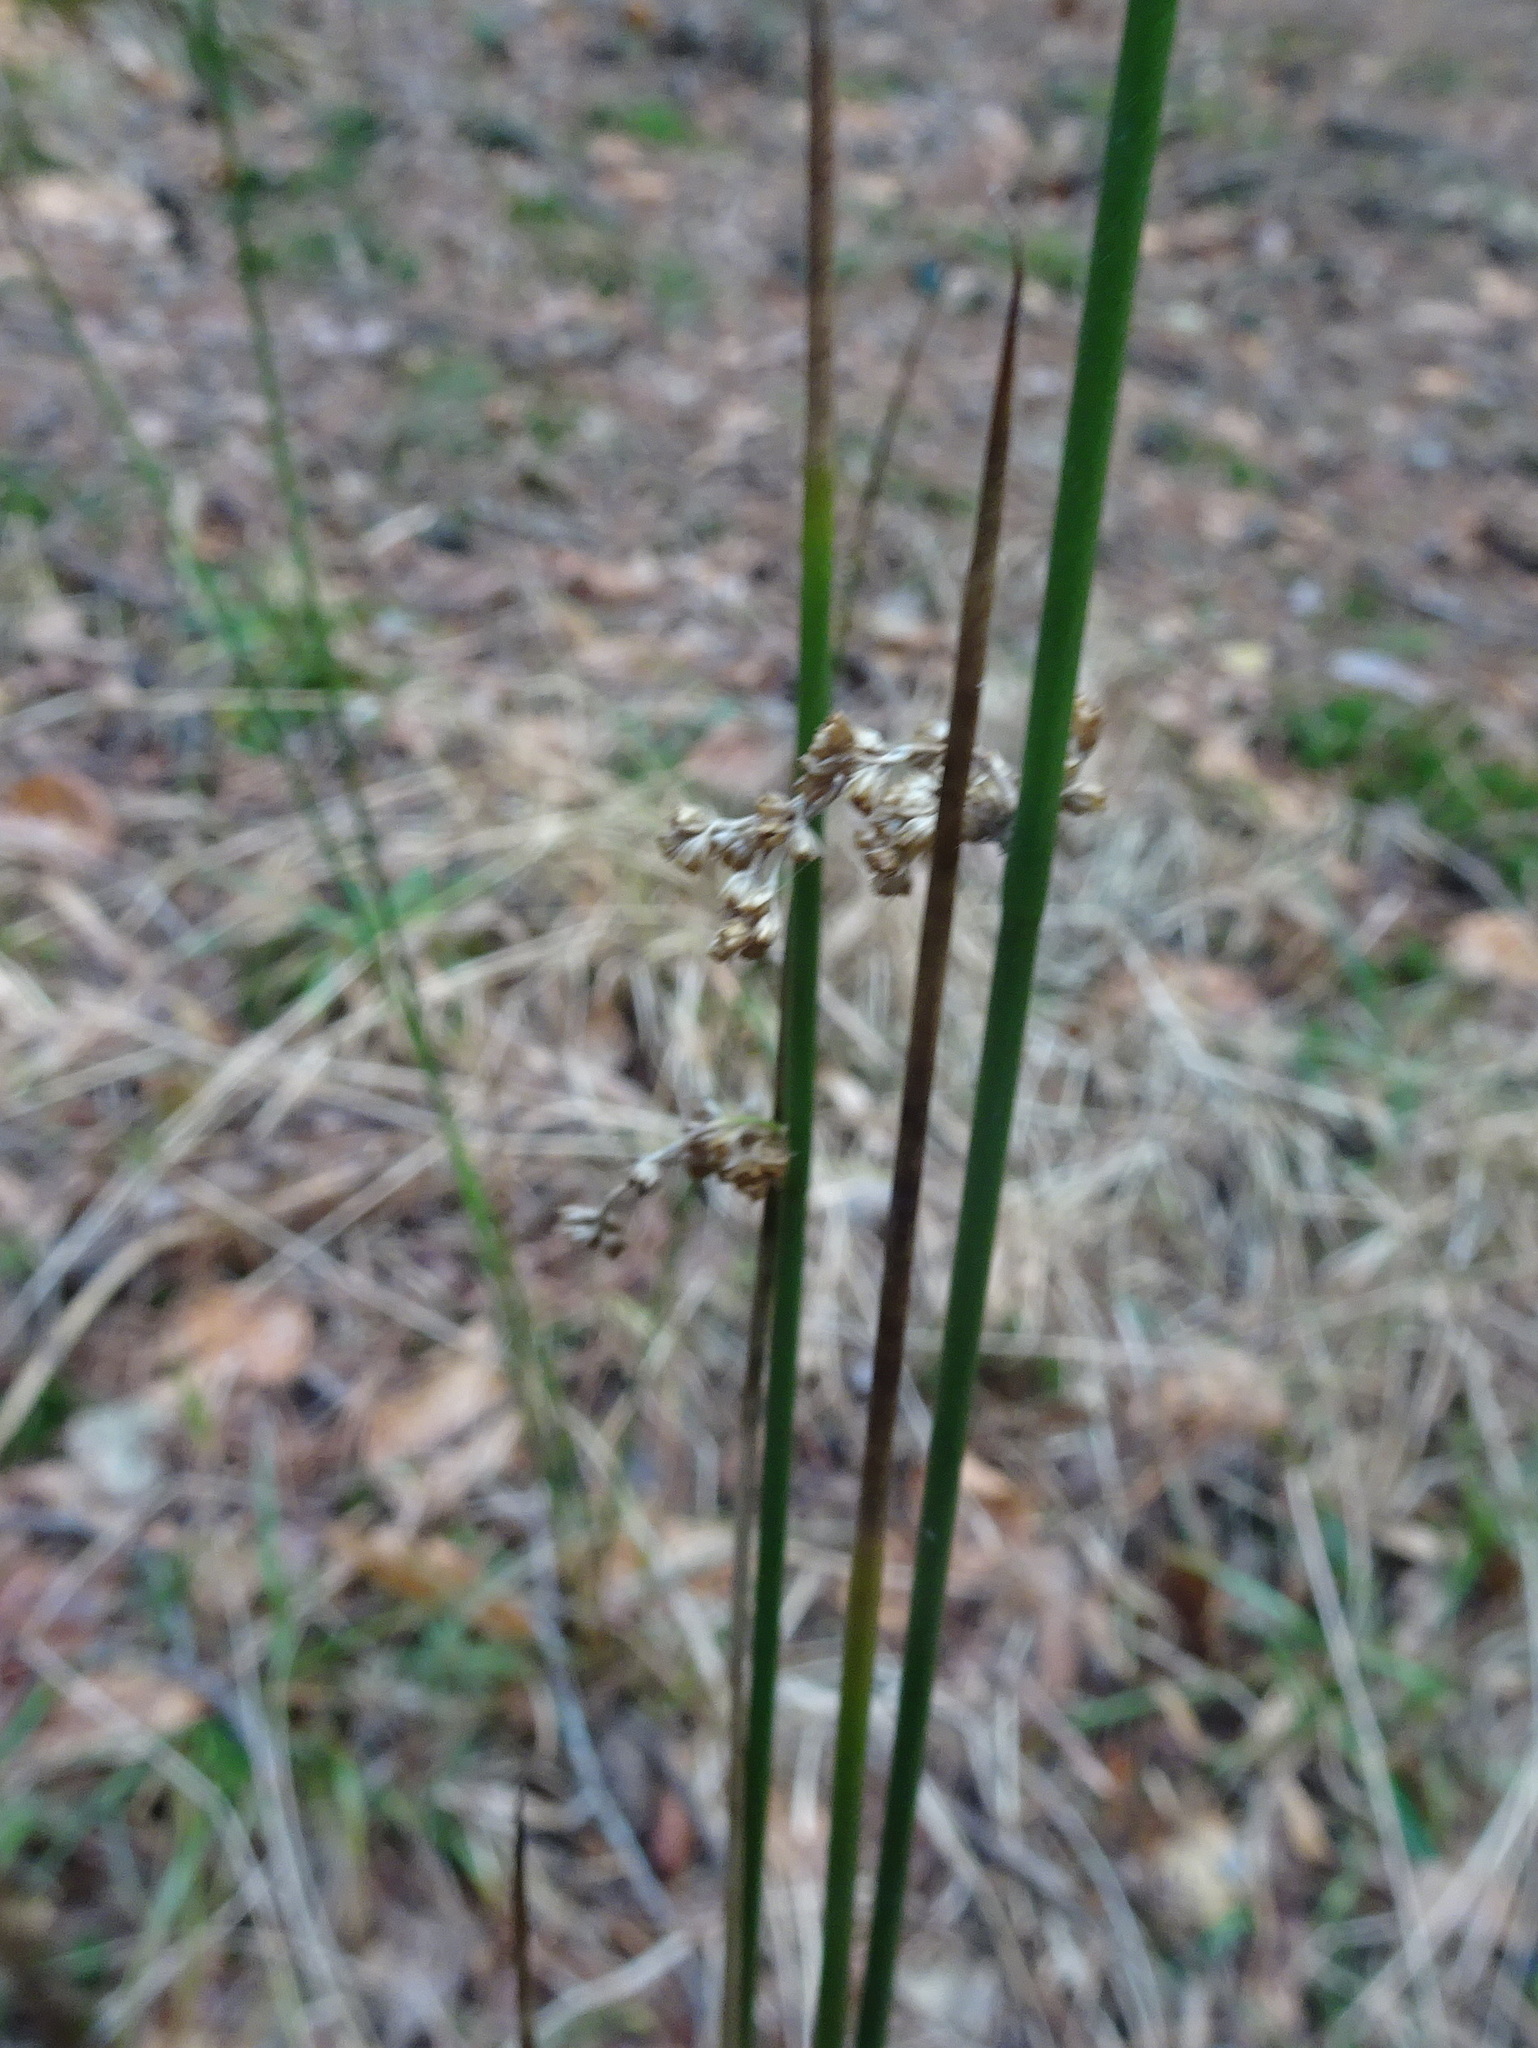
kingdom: Plantae
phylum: Tracheophyta
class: Liliopsida
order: Poales
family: Juncaceae
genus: Juncus
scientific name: Juncus effusus
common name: Soft rush
